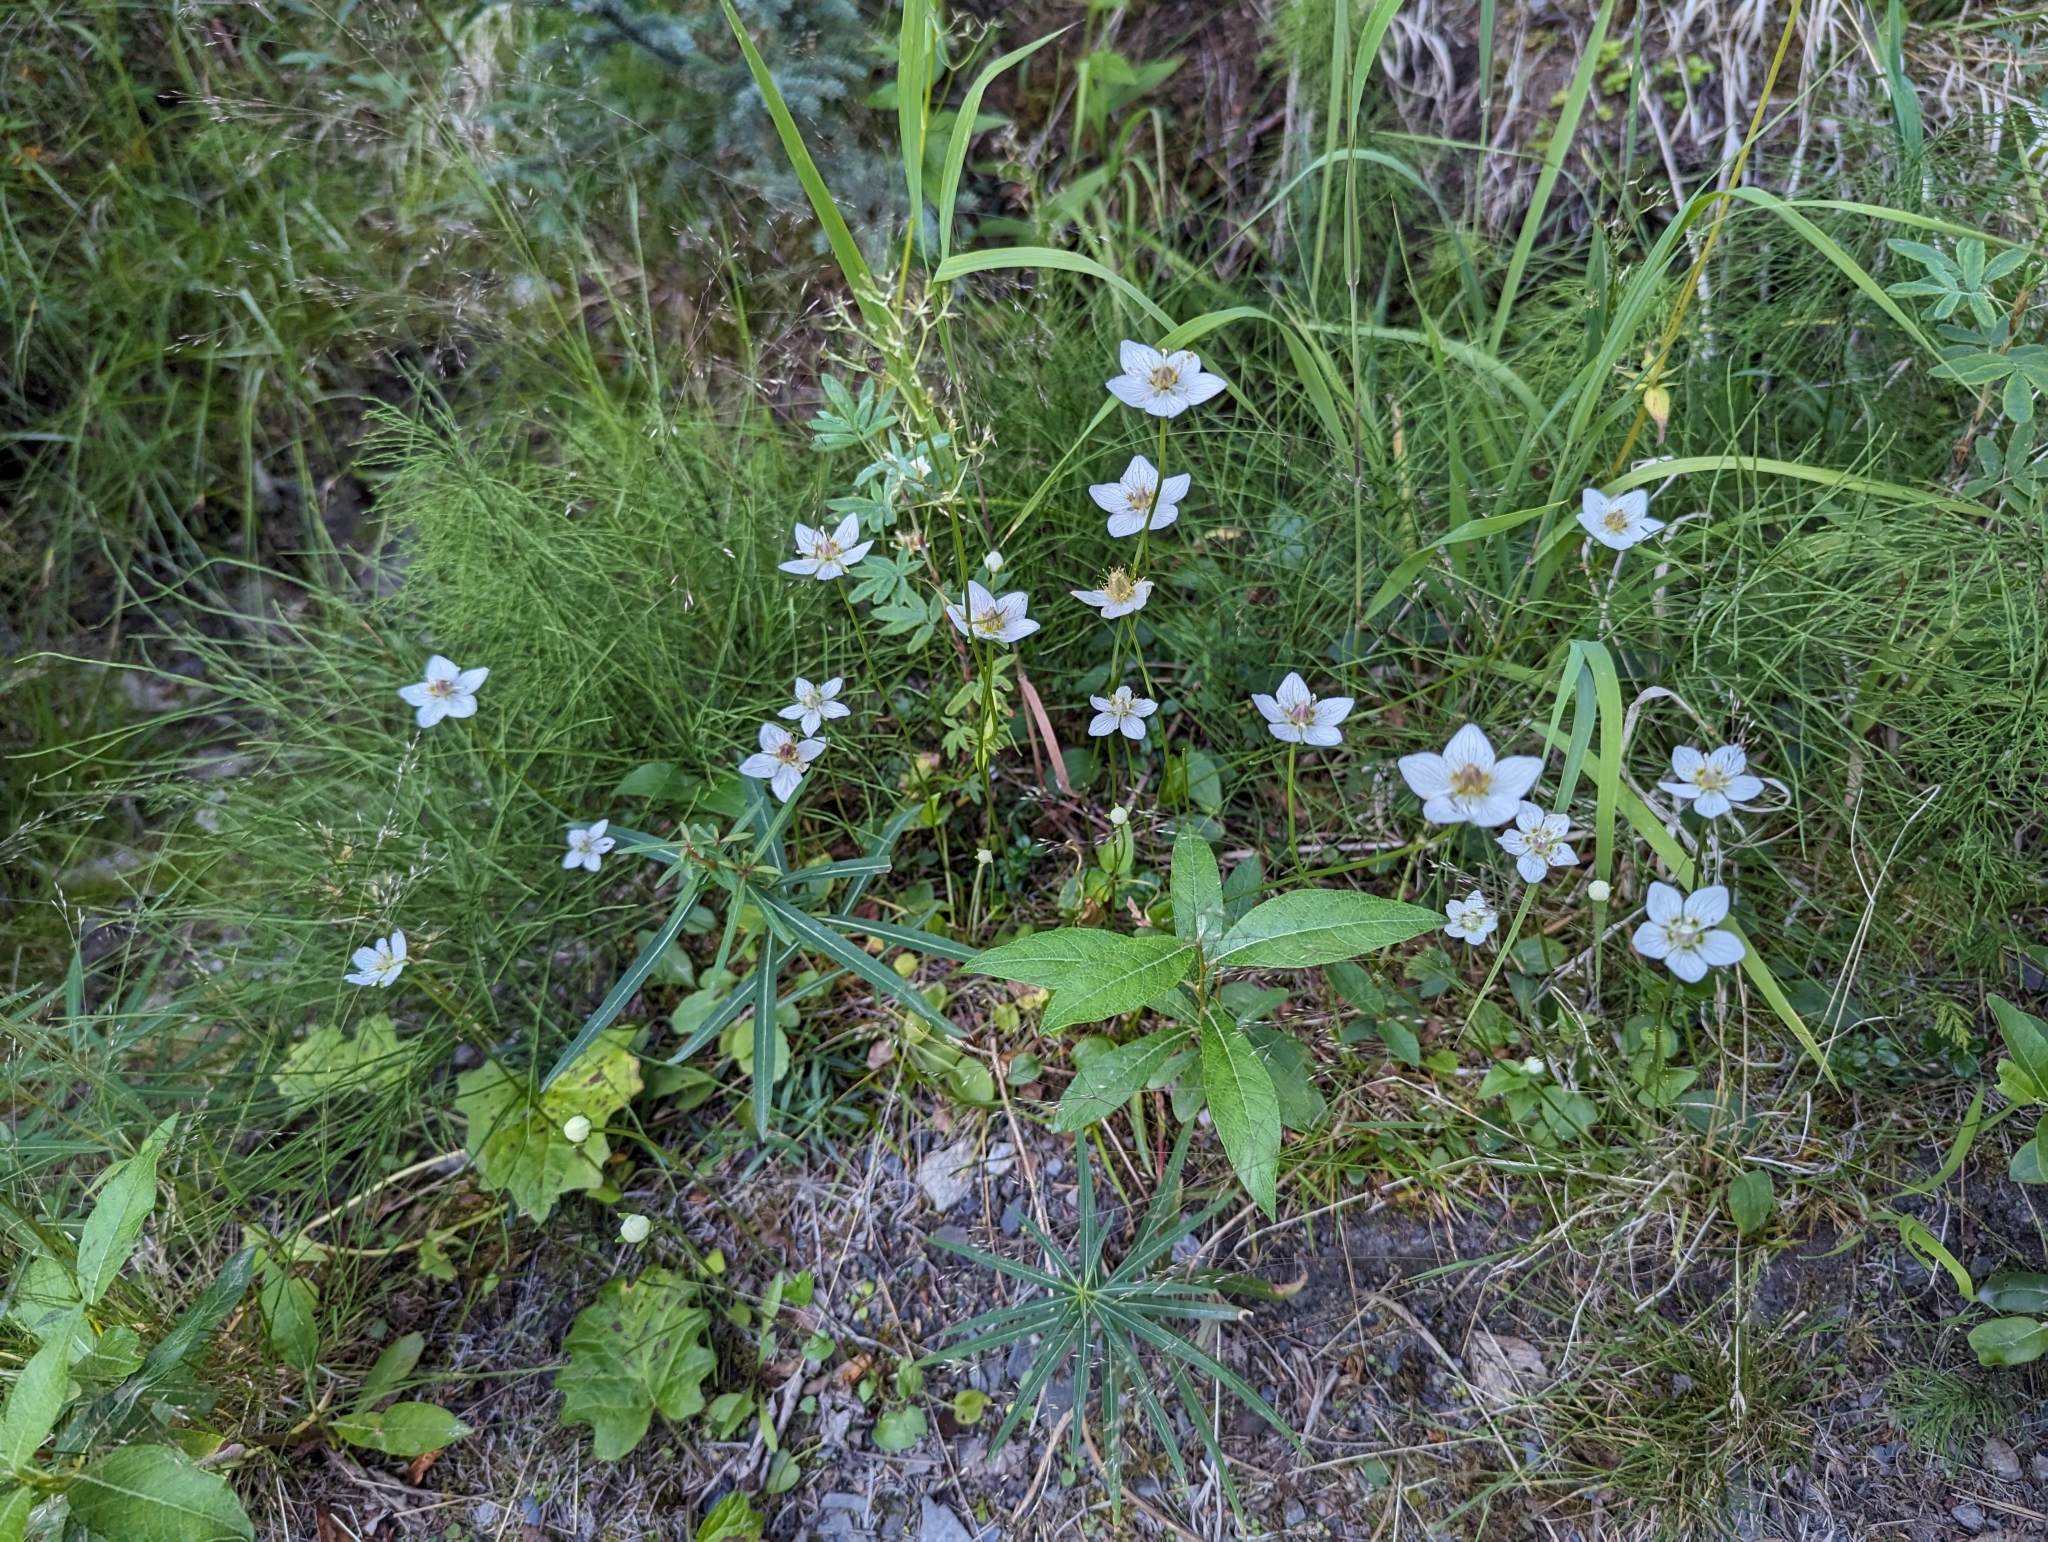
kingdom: Plantae
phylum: Tracheophyta
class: Magnoliopsida
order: Celastrales
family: Parnassiaceae
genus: Parnassia
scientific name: Parnassia palustris
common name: Grass-of-parnassus
